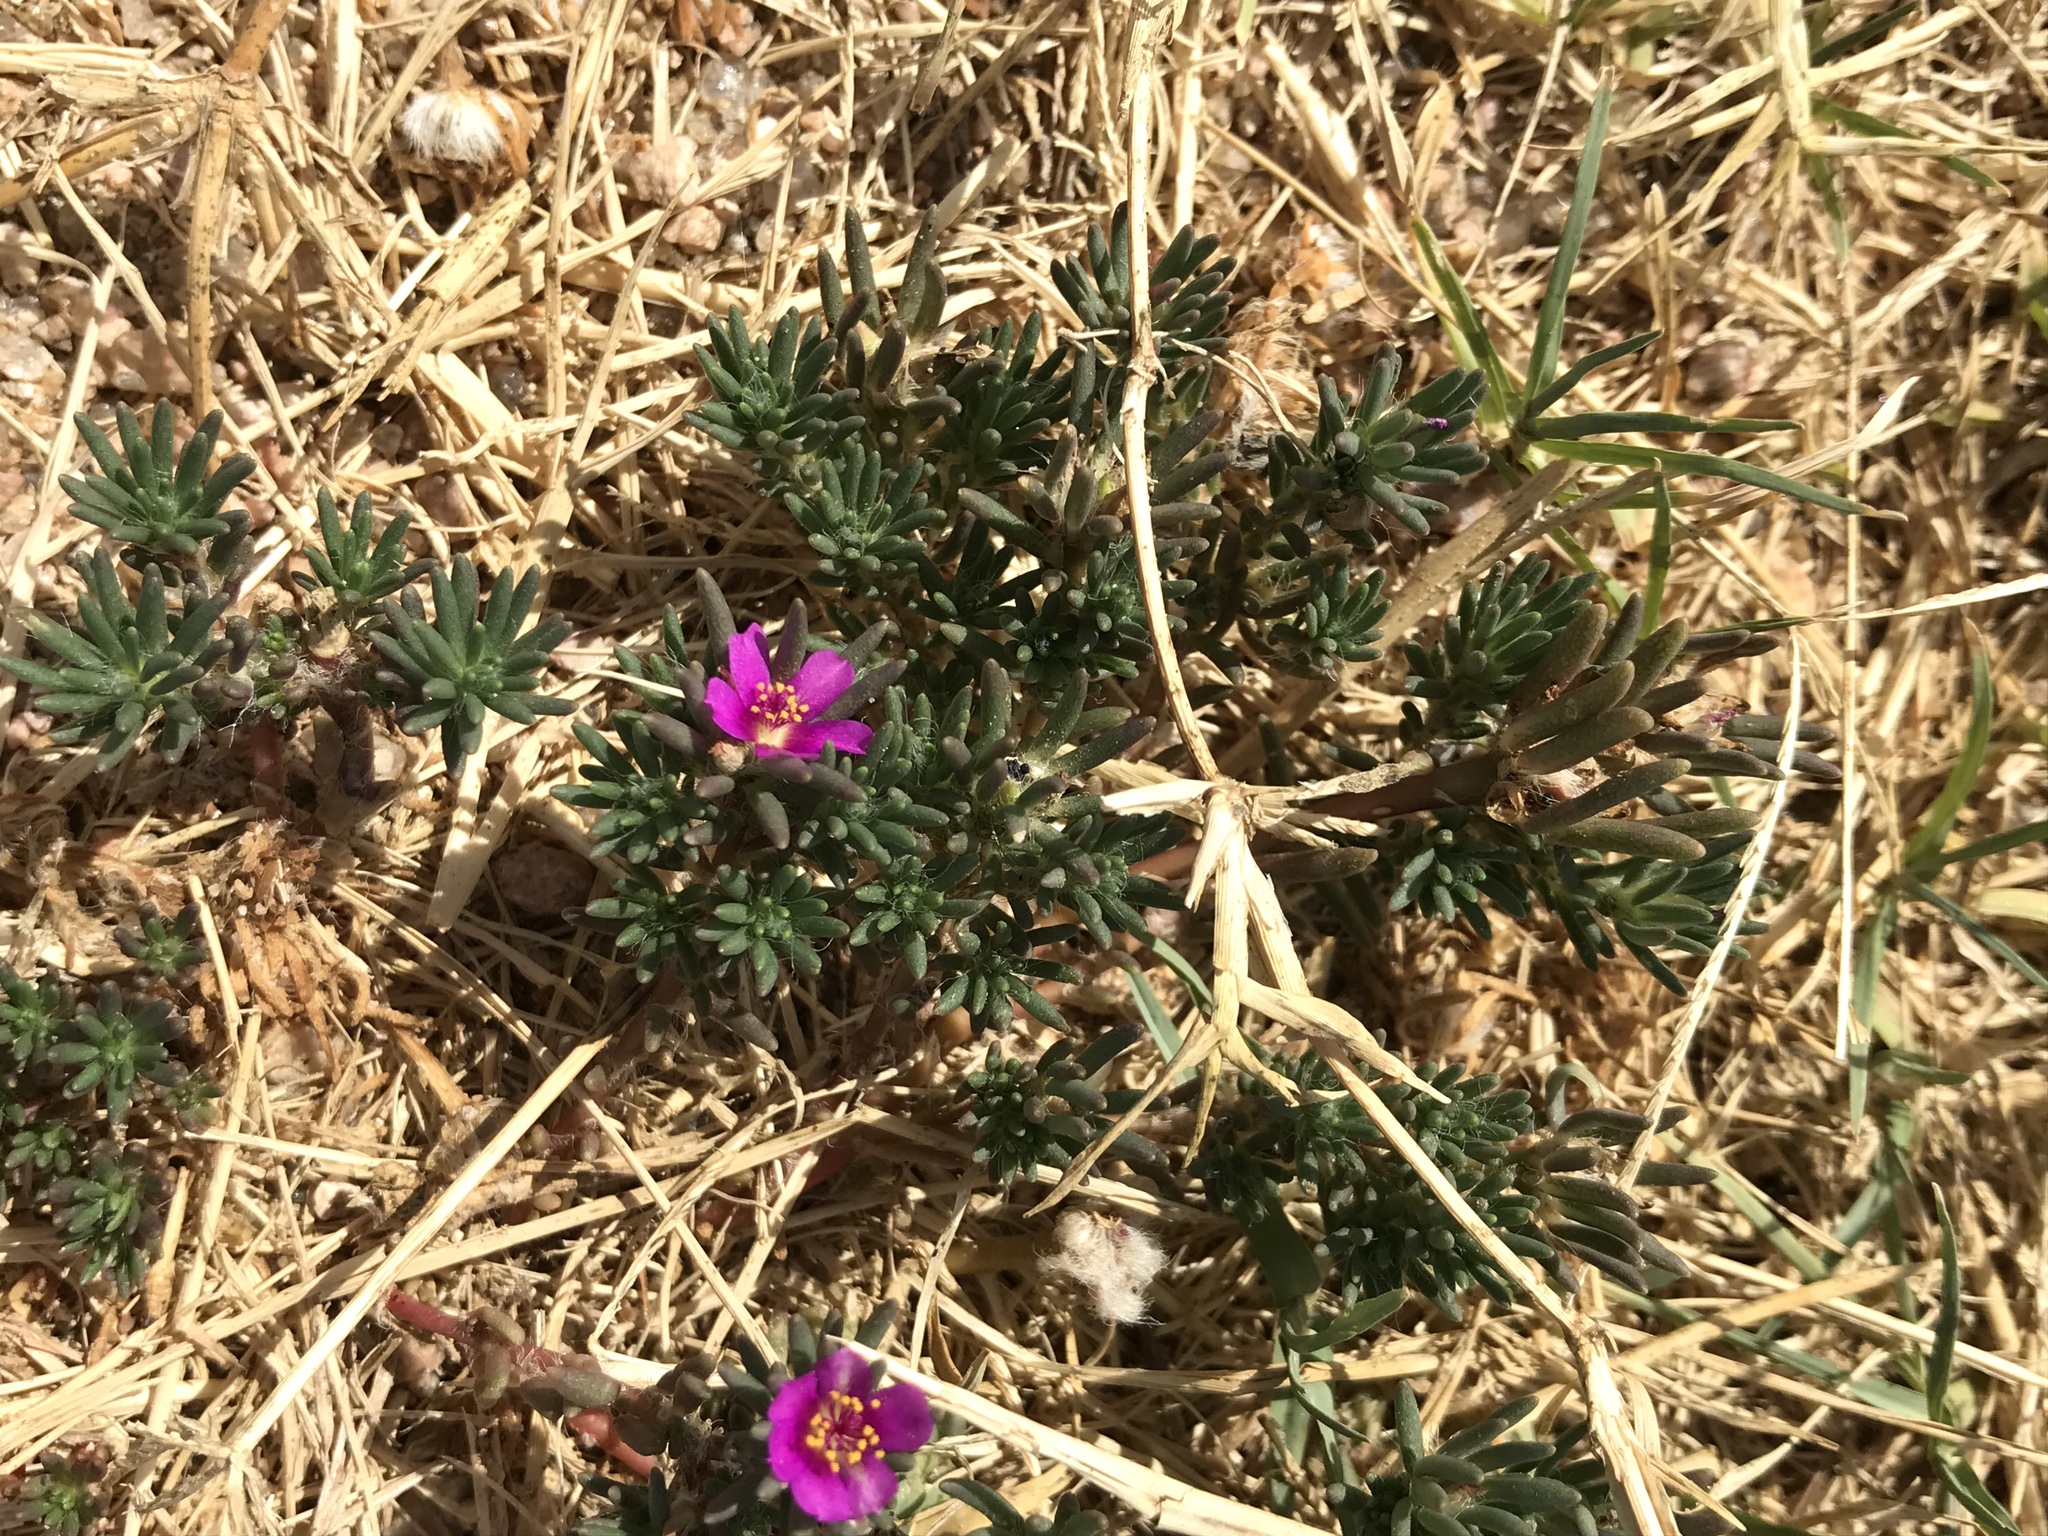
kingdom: Plantae
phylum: Tracheophyta
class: Magnoliopsida
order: Caryophyllales
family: Portulacaceae
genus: Portulaca
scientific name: Portulaca pilosa
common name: Kiss me quick
